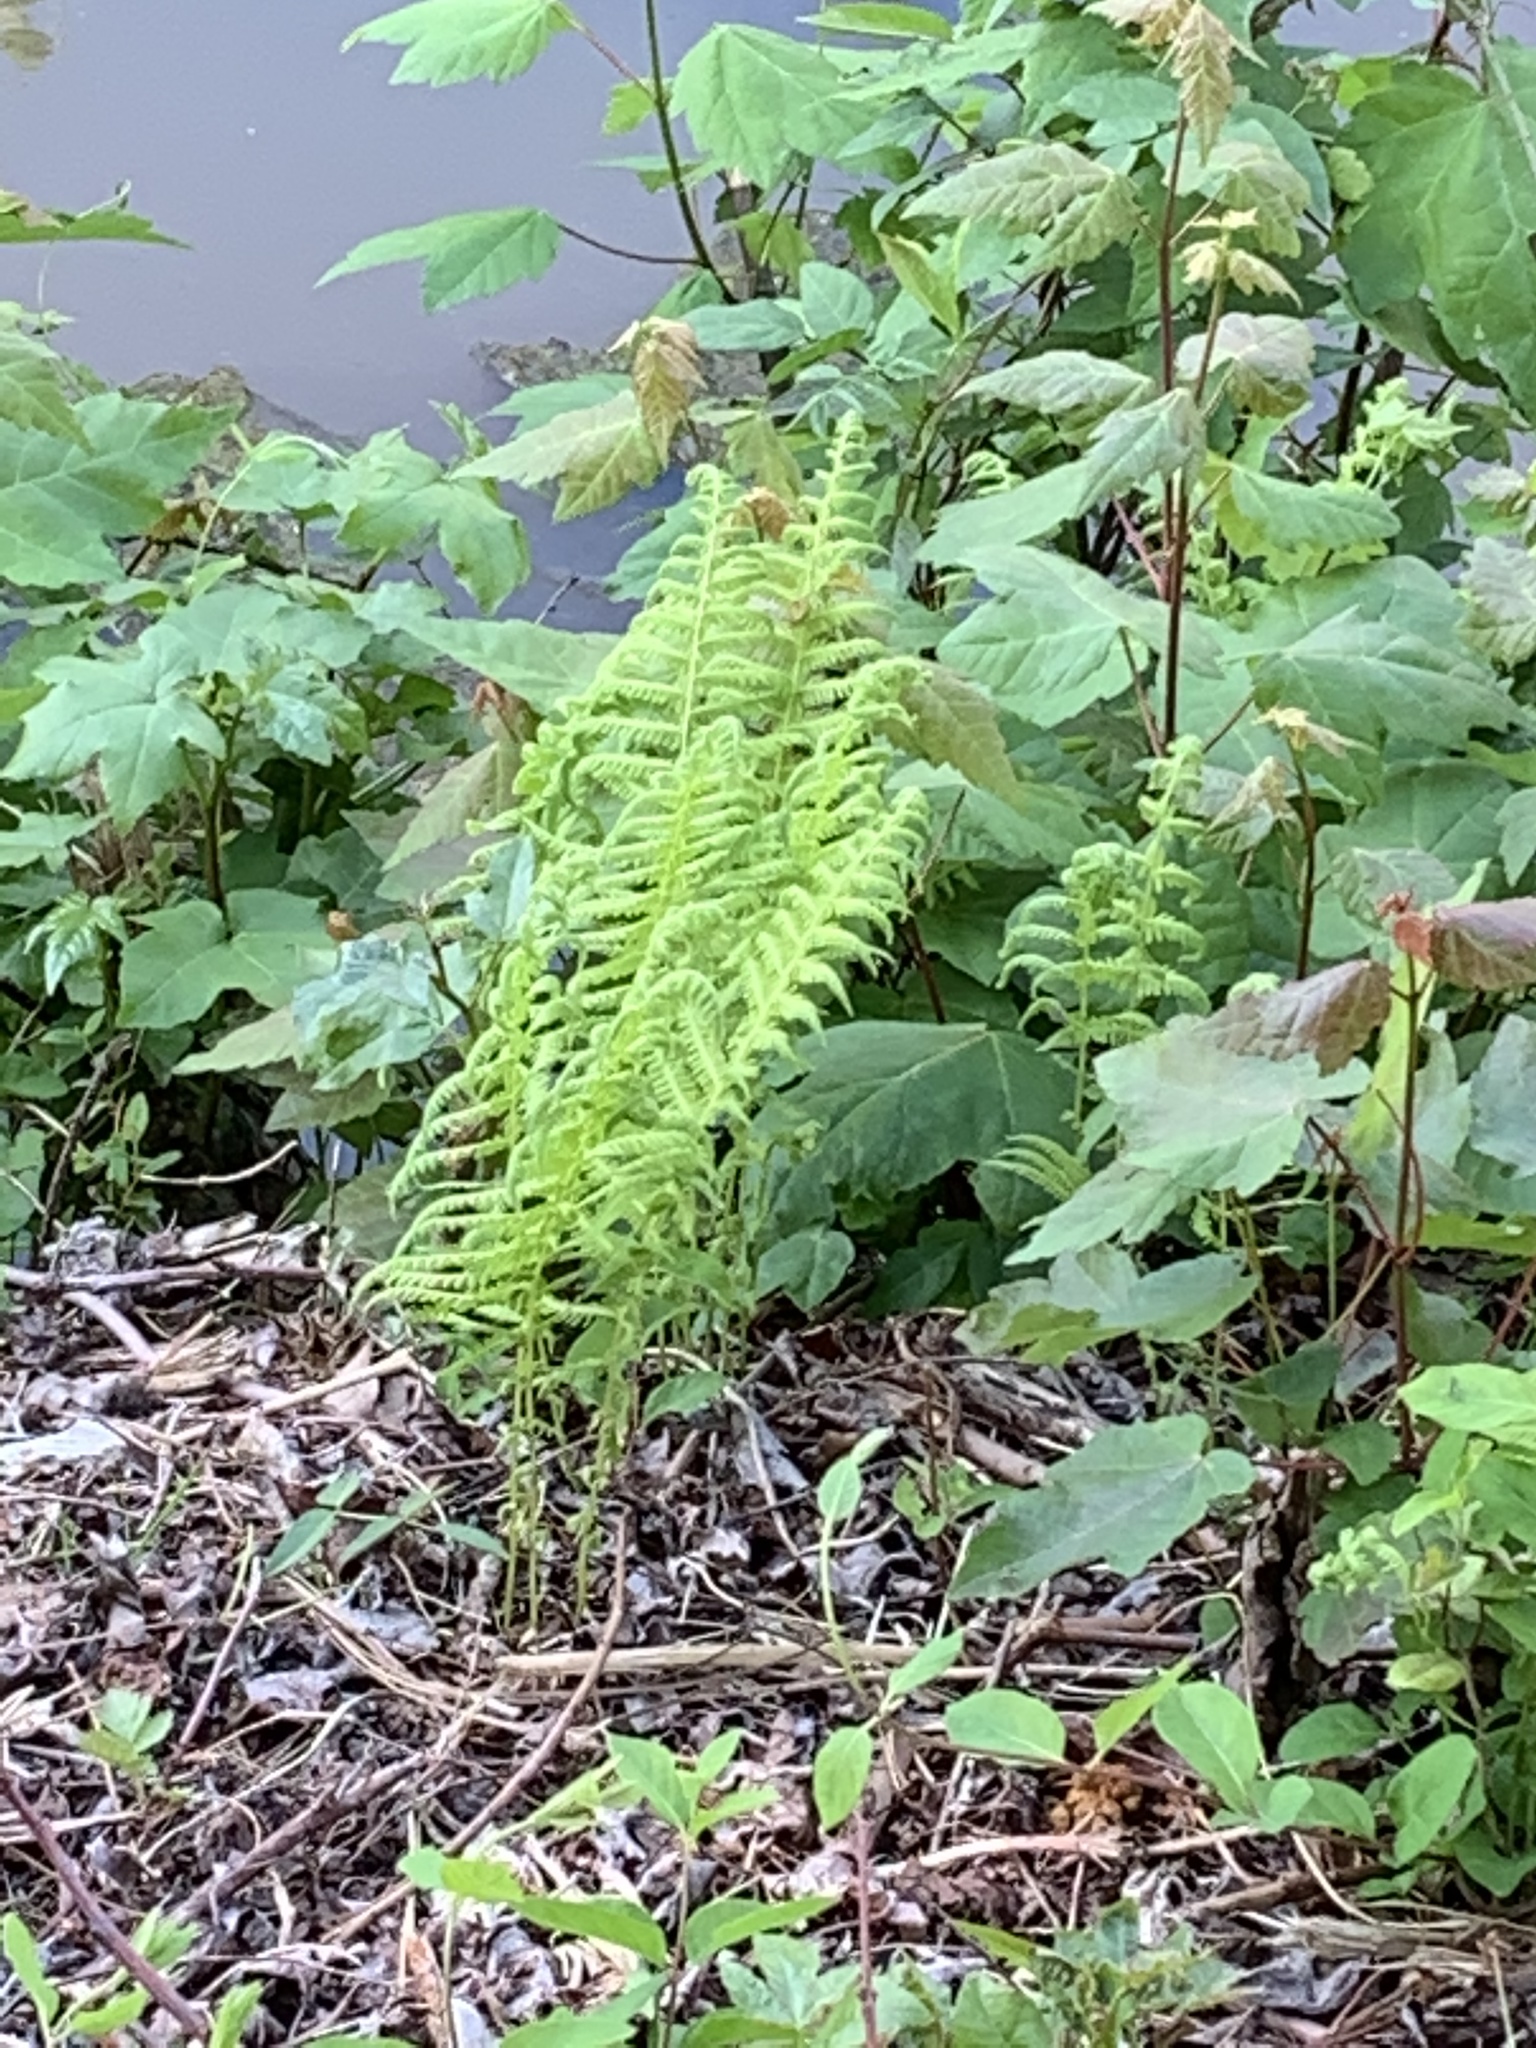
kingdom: Plantae
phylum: Tracheophyta
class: Polypodiopsida
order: Polypodiales
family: Thelypteridaceae
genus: Amauropelta
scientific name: Amauropelta noveboracensis
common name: New york fern
